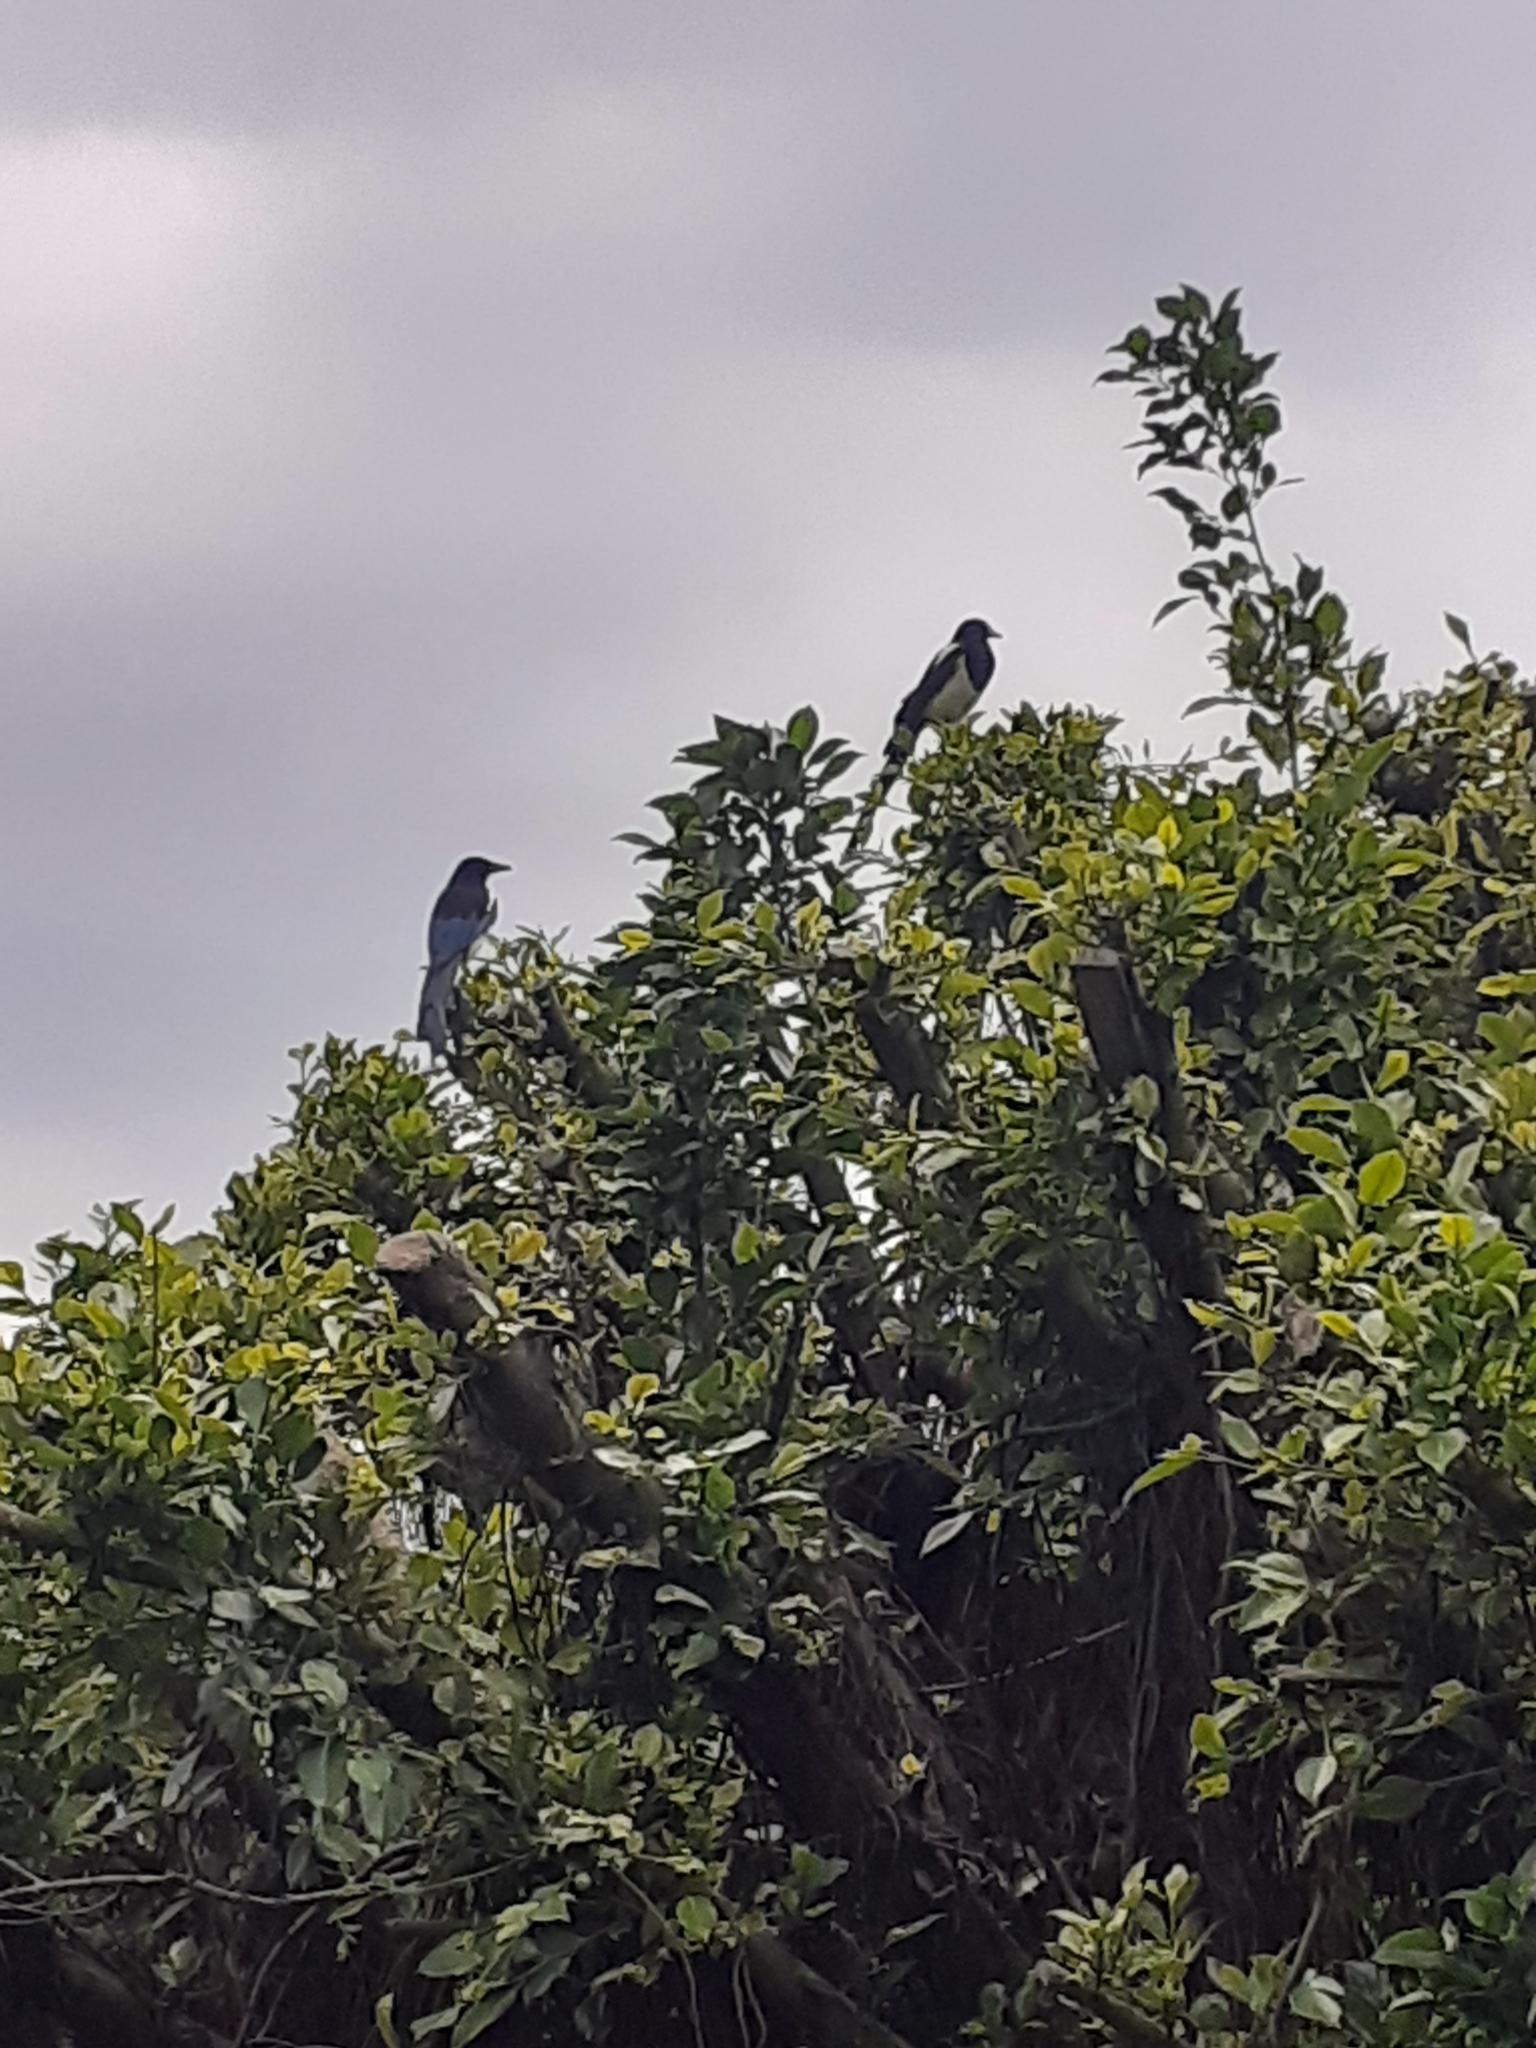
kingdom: Animalia
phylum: Chordata
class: Aves
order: Passeriformes
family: Corvidae
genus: Pica
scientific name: Pica serica
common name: Oriental magpie
